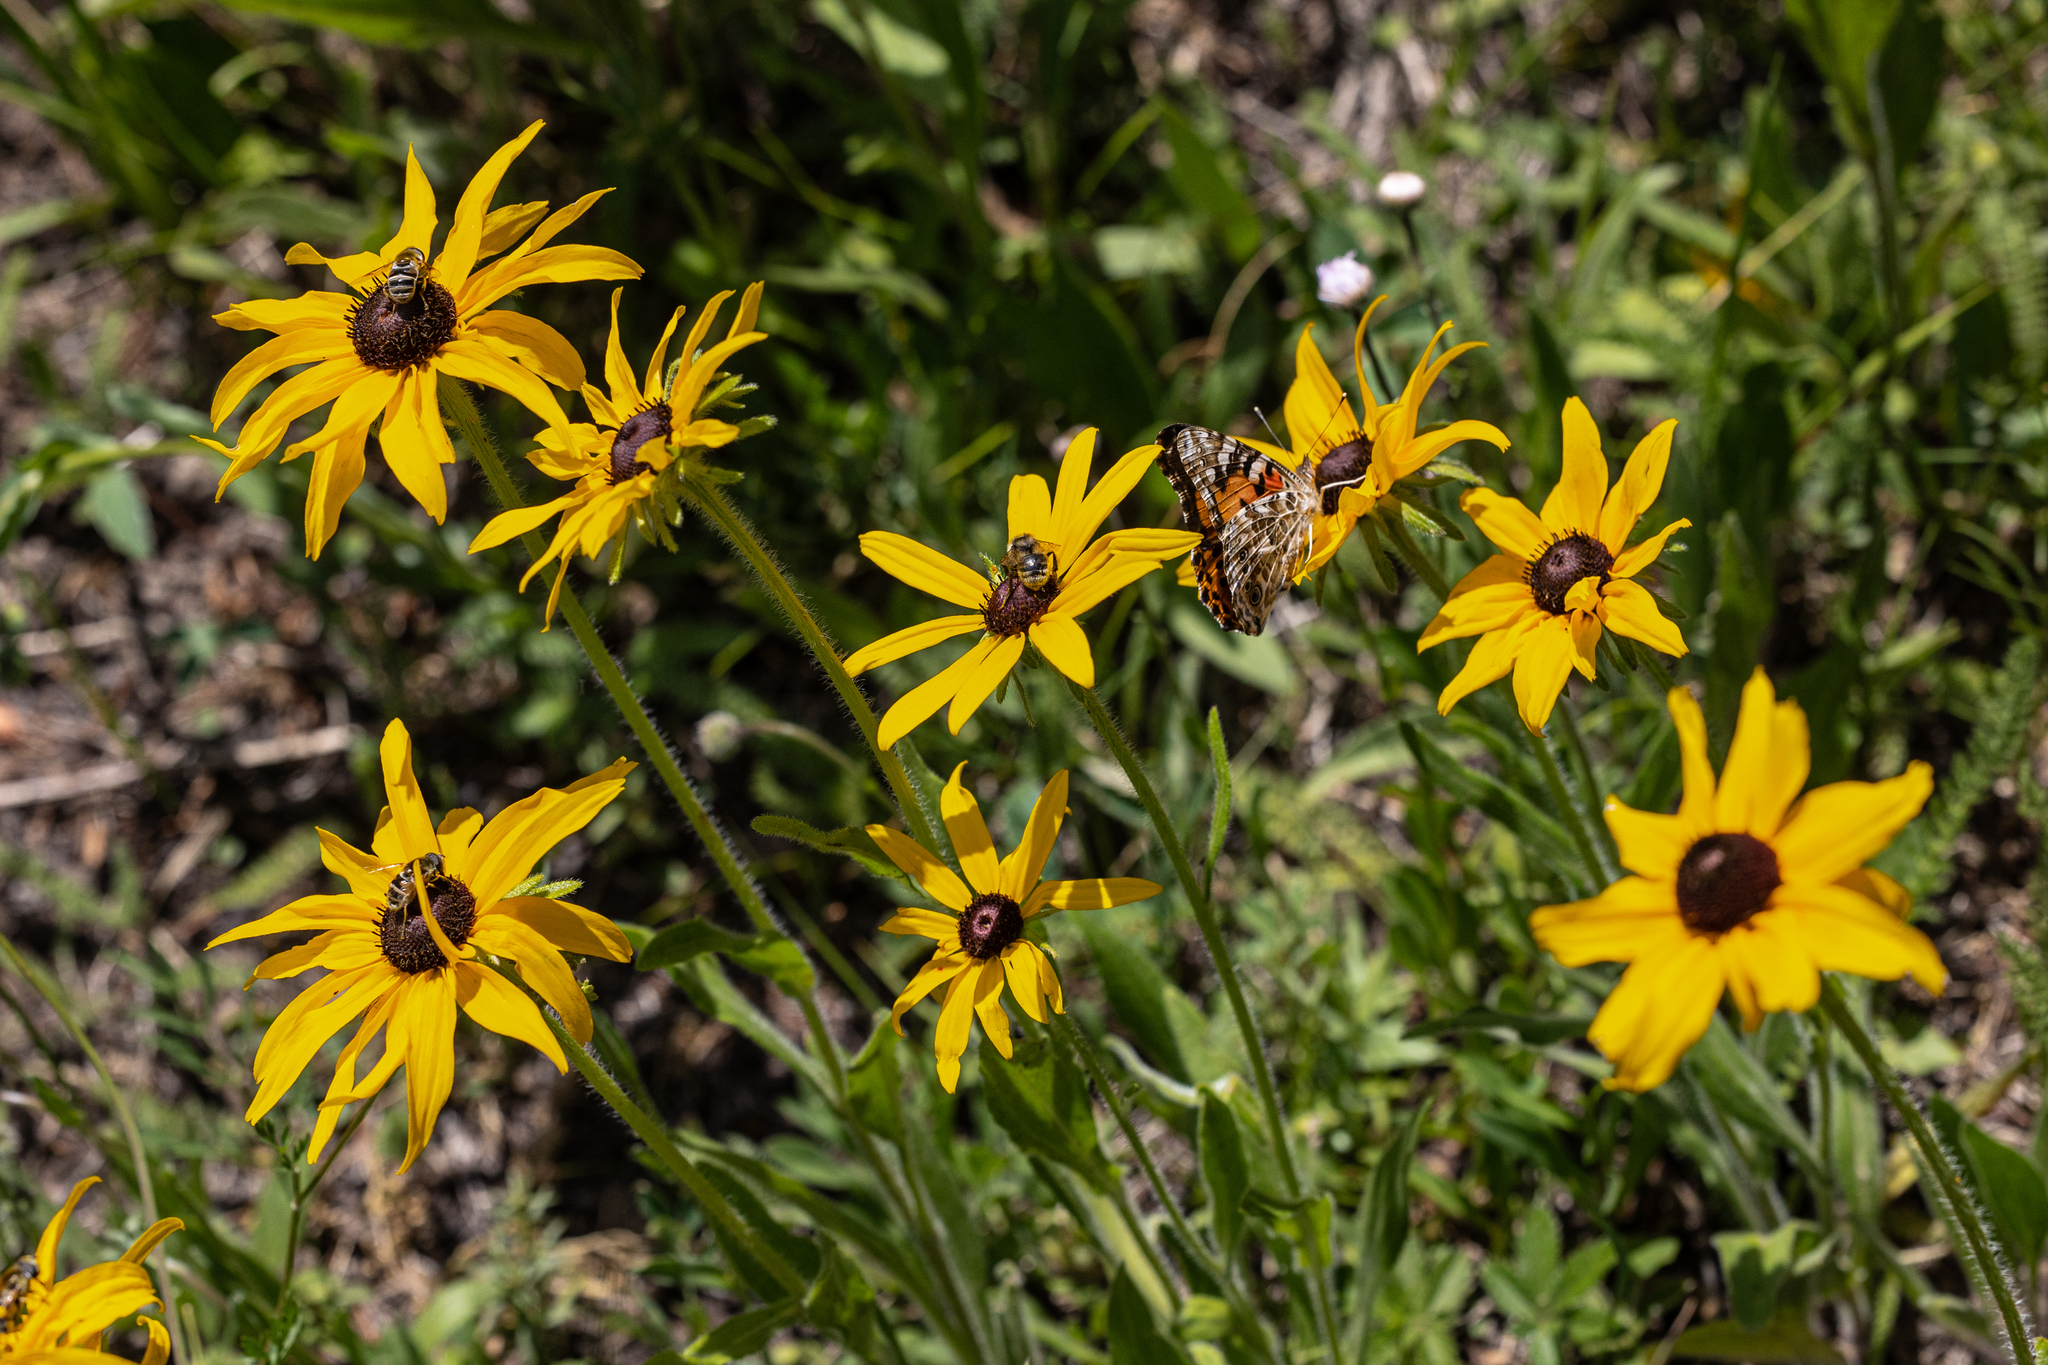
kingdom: Plantae
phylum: Tracheophyta
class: Magnoliopsida
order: Asterales
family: Asteraceae
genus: Rudbeckia
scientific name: Rudbeckia hirta
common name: Black-eyed-susan
